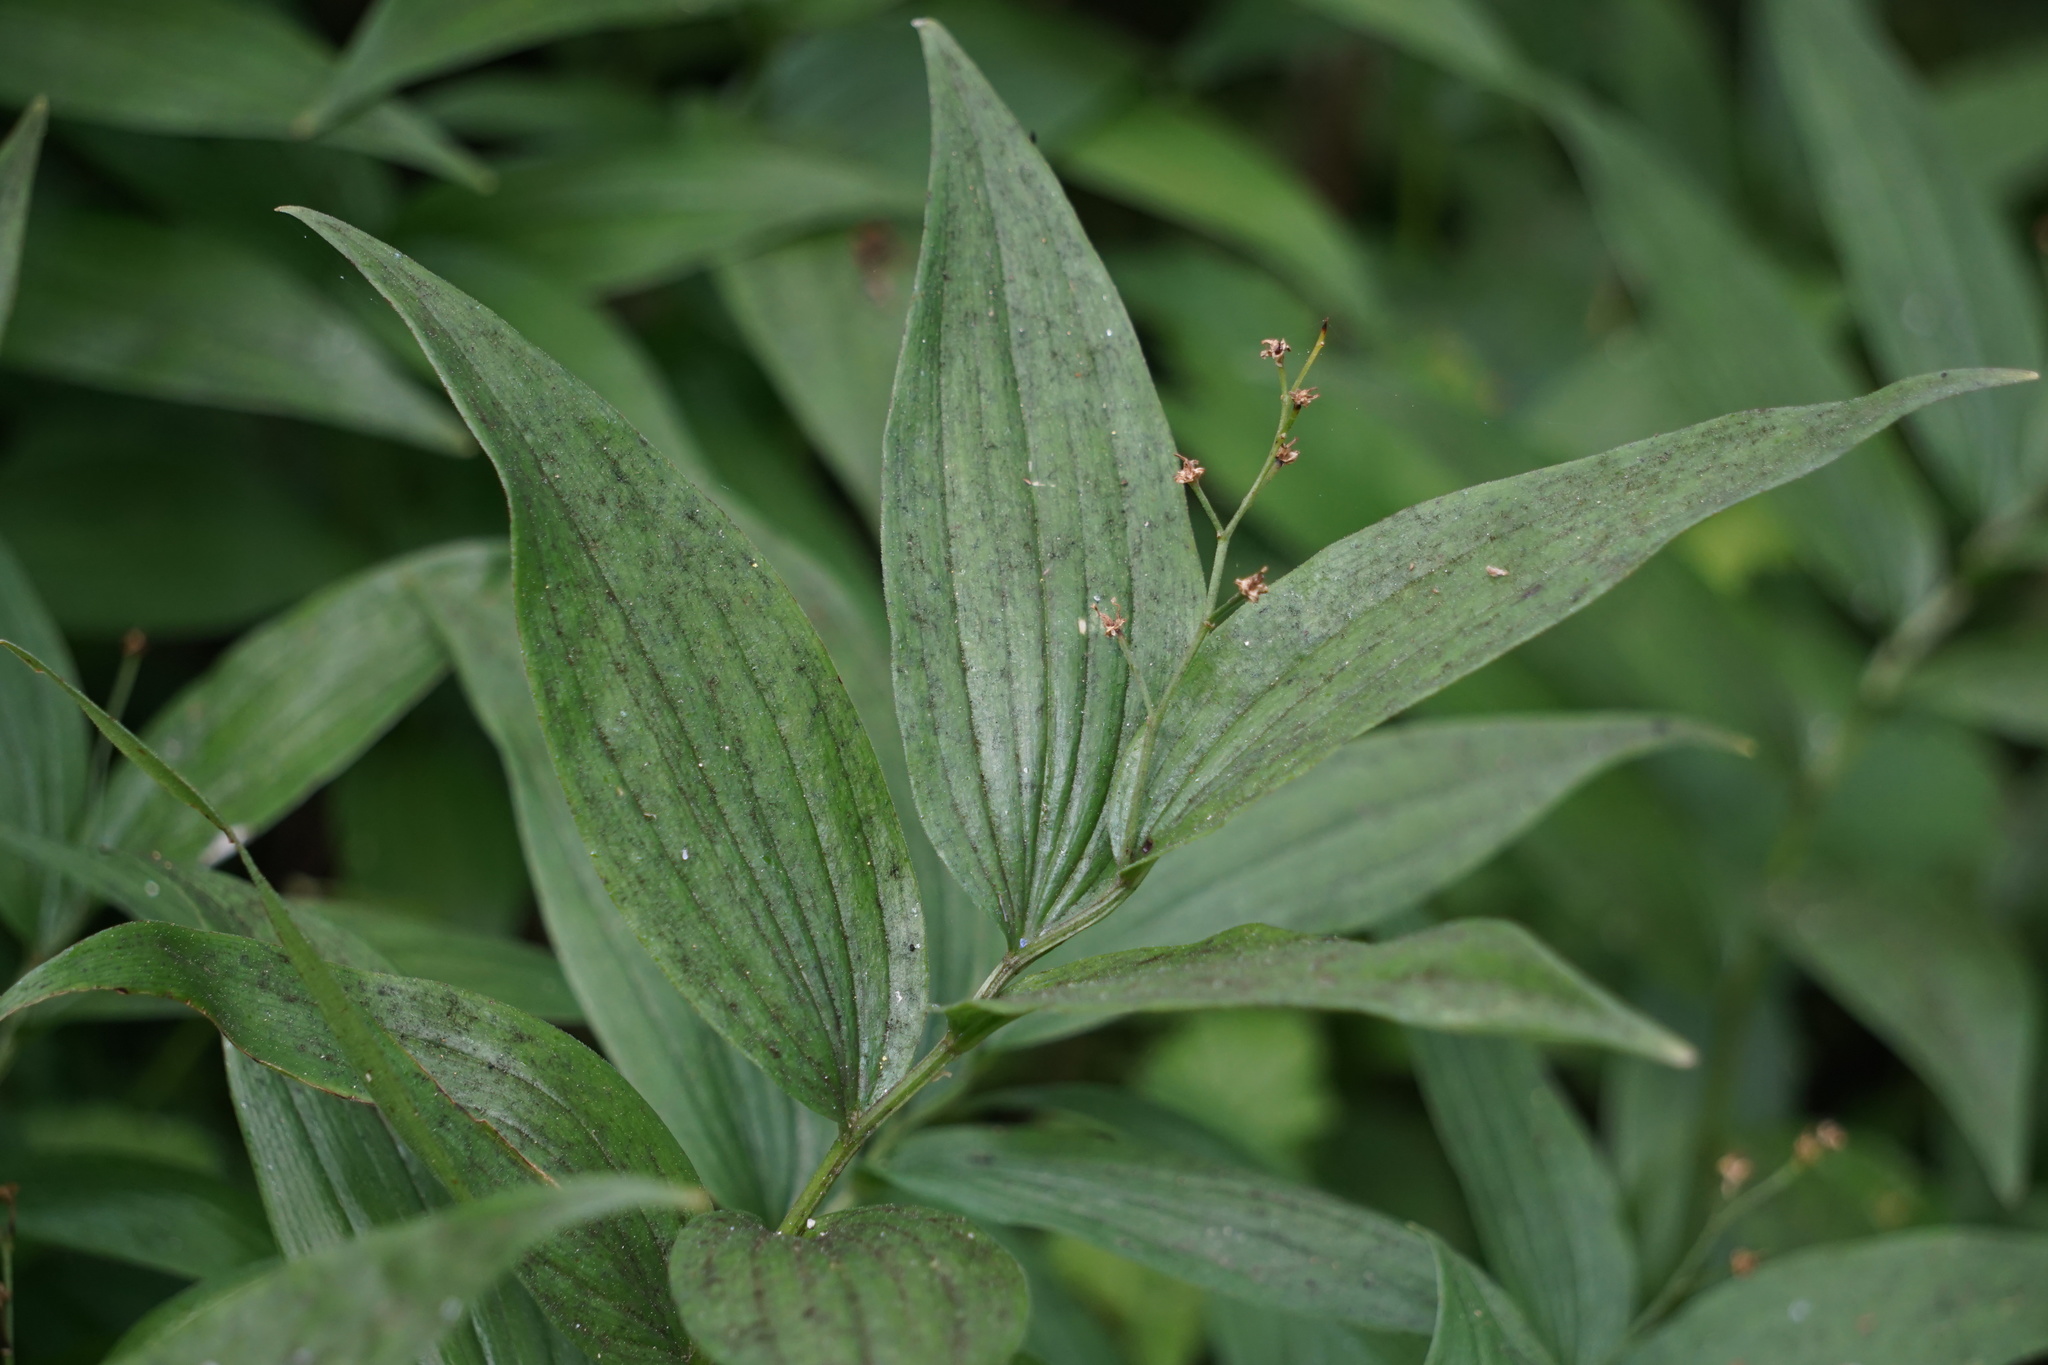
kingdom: Plantae
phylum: Tracheophyta
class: Liliopsida
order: Asparagales
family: Asparagaceae
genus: Maianthemum
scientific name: Maianthemum stellatum
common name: Little false solomon's seal
